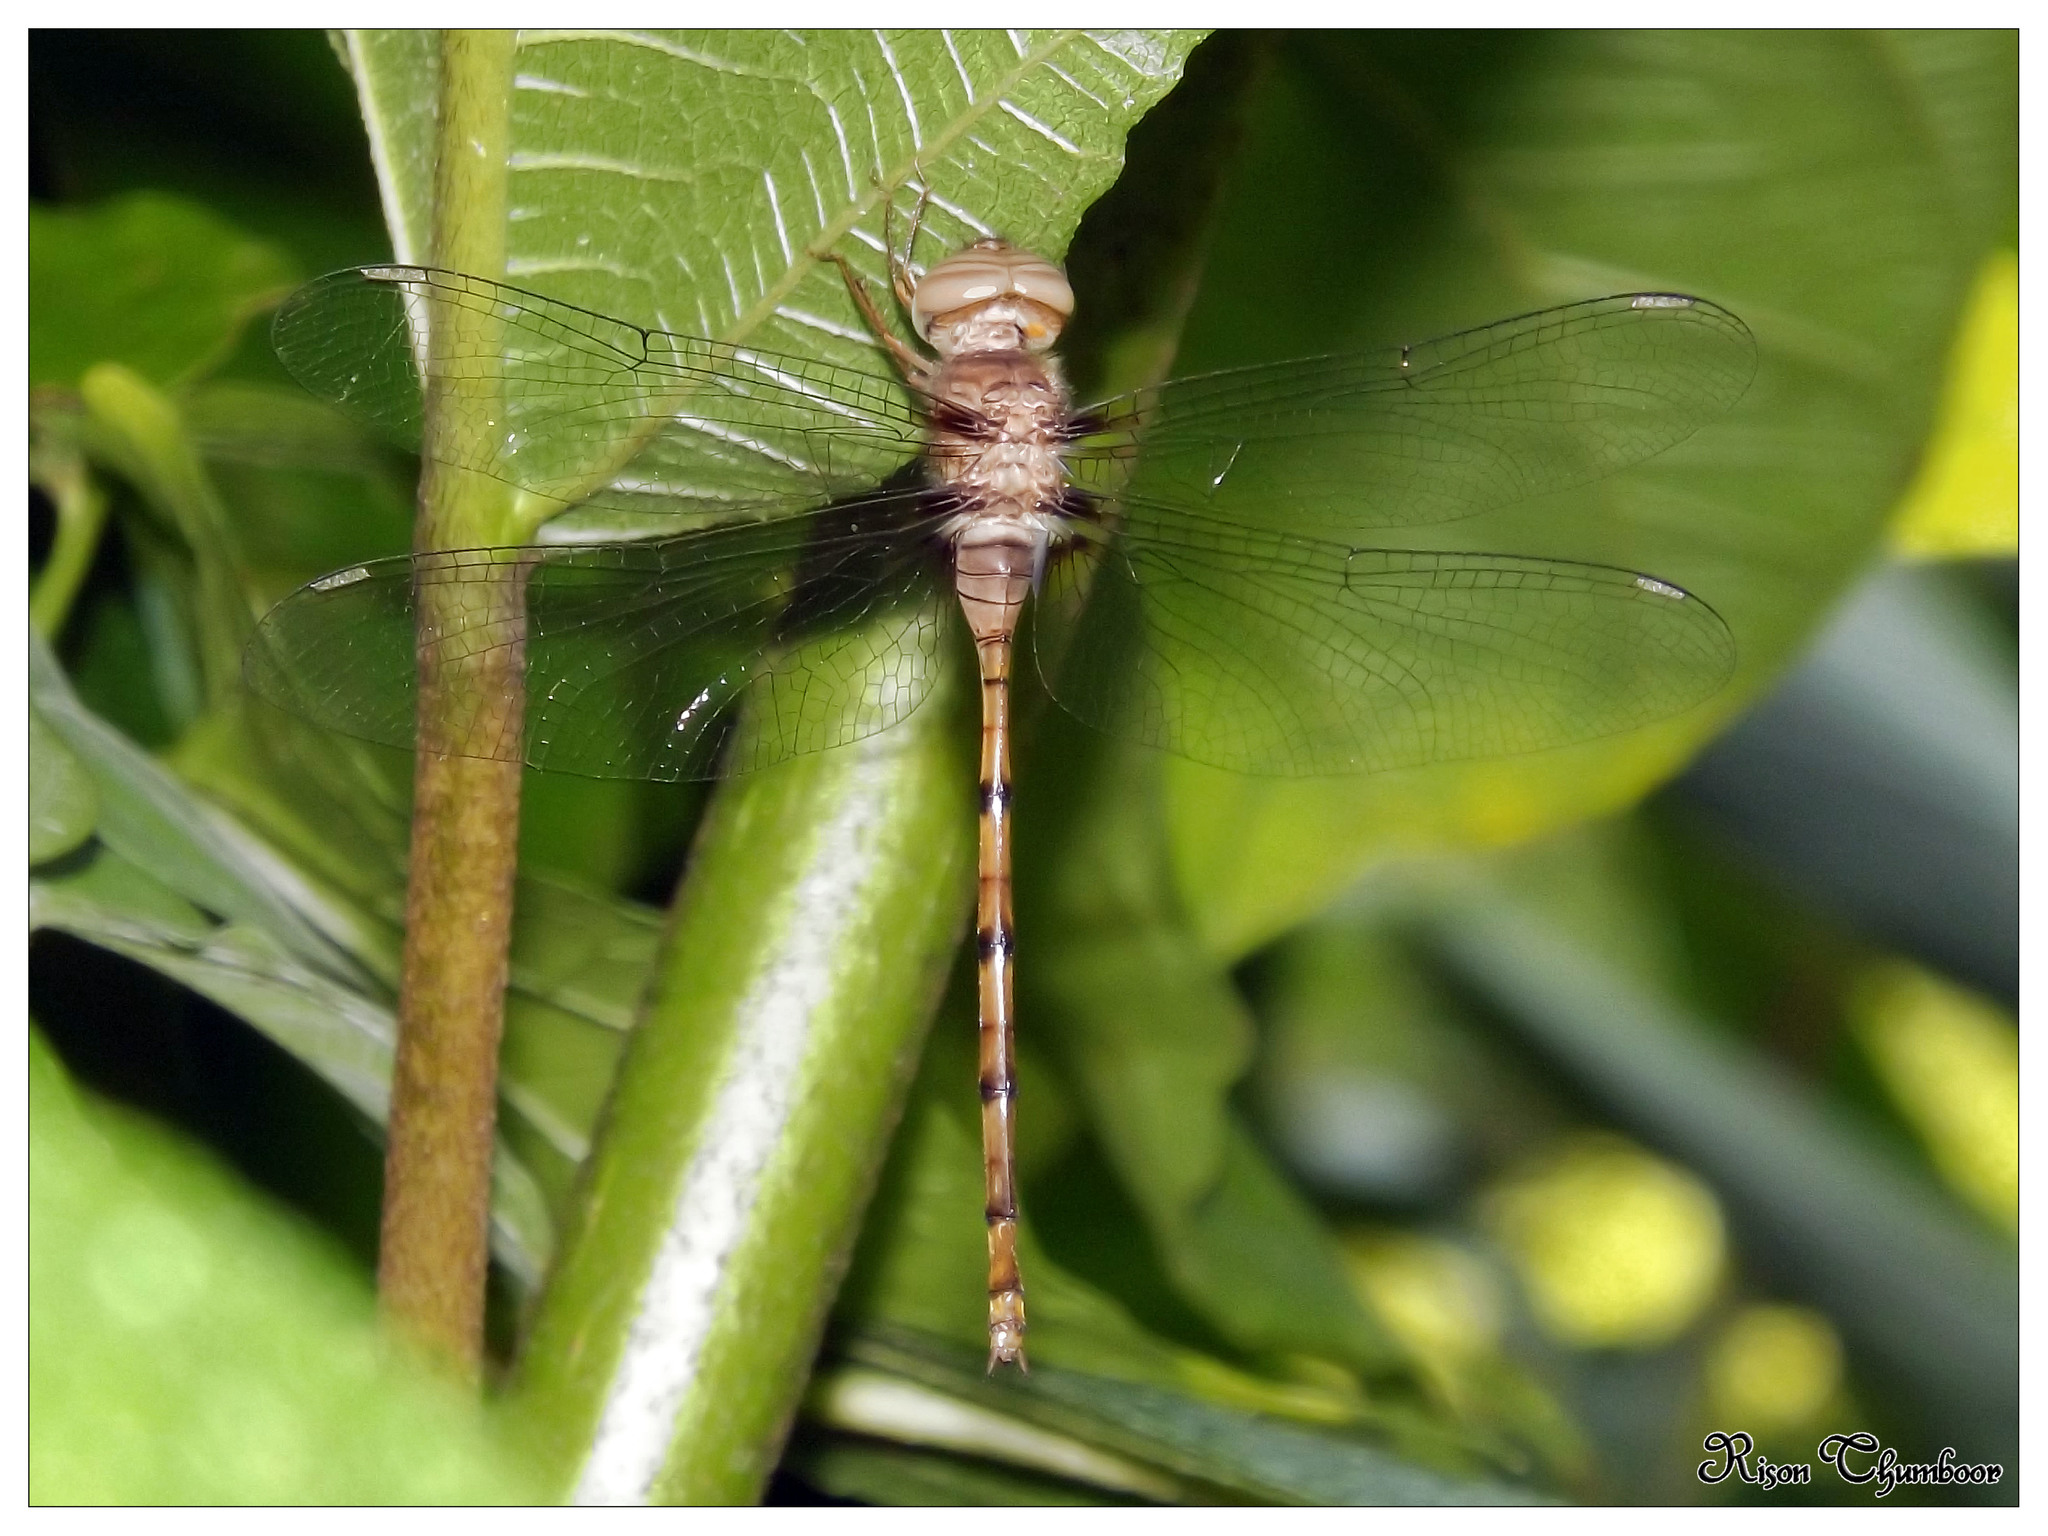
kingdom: Animalia
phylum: Arthropoda
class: Insecta
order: Odonata
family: Libellulidae
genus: Zyxomma
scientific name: Zyxomma petiolatum
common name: Dingy dusk-darter
